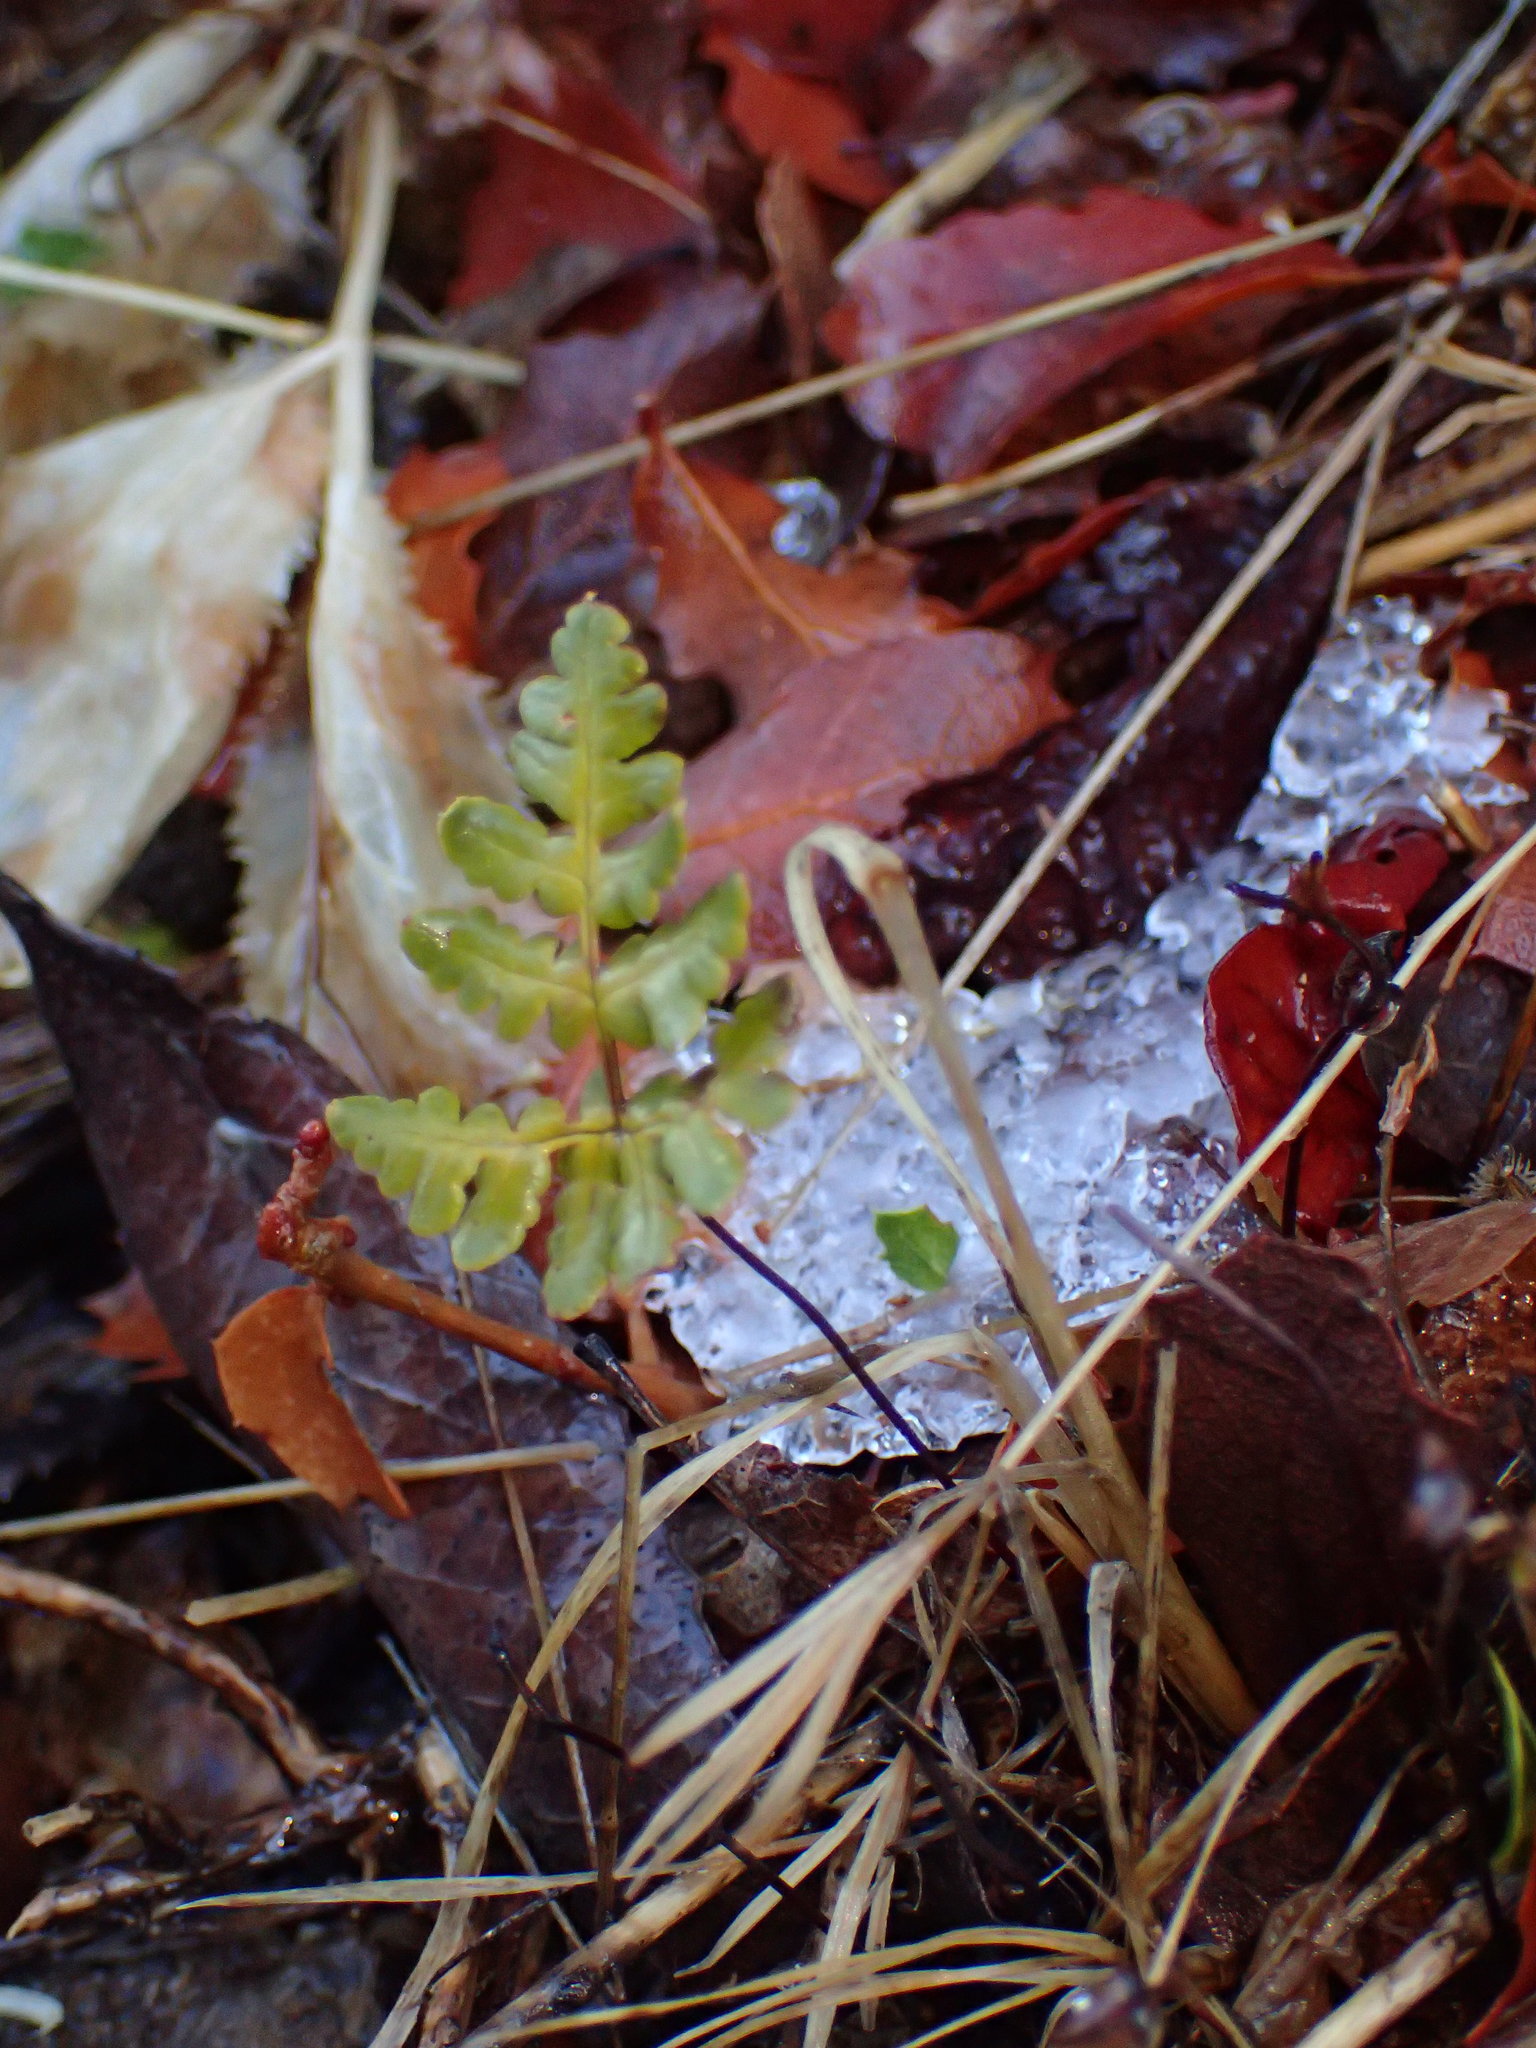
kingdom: Plantae
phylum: Tracheophyta
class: Polypodiopsida
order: Polypodiales
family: Pteridaceae
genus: Pentagramma
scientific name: Pentagramma triangularis
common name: Gold fern
